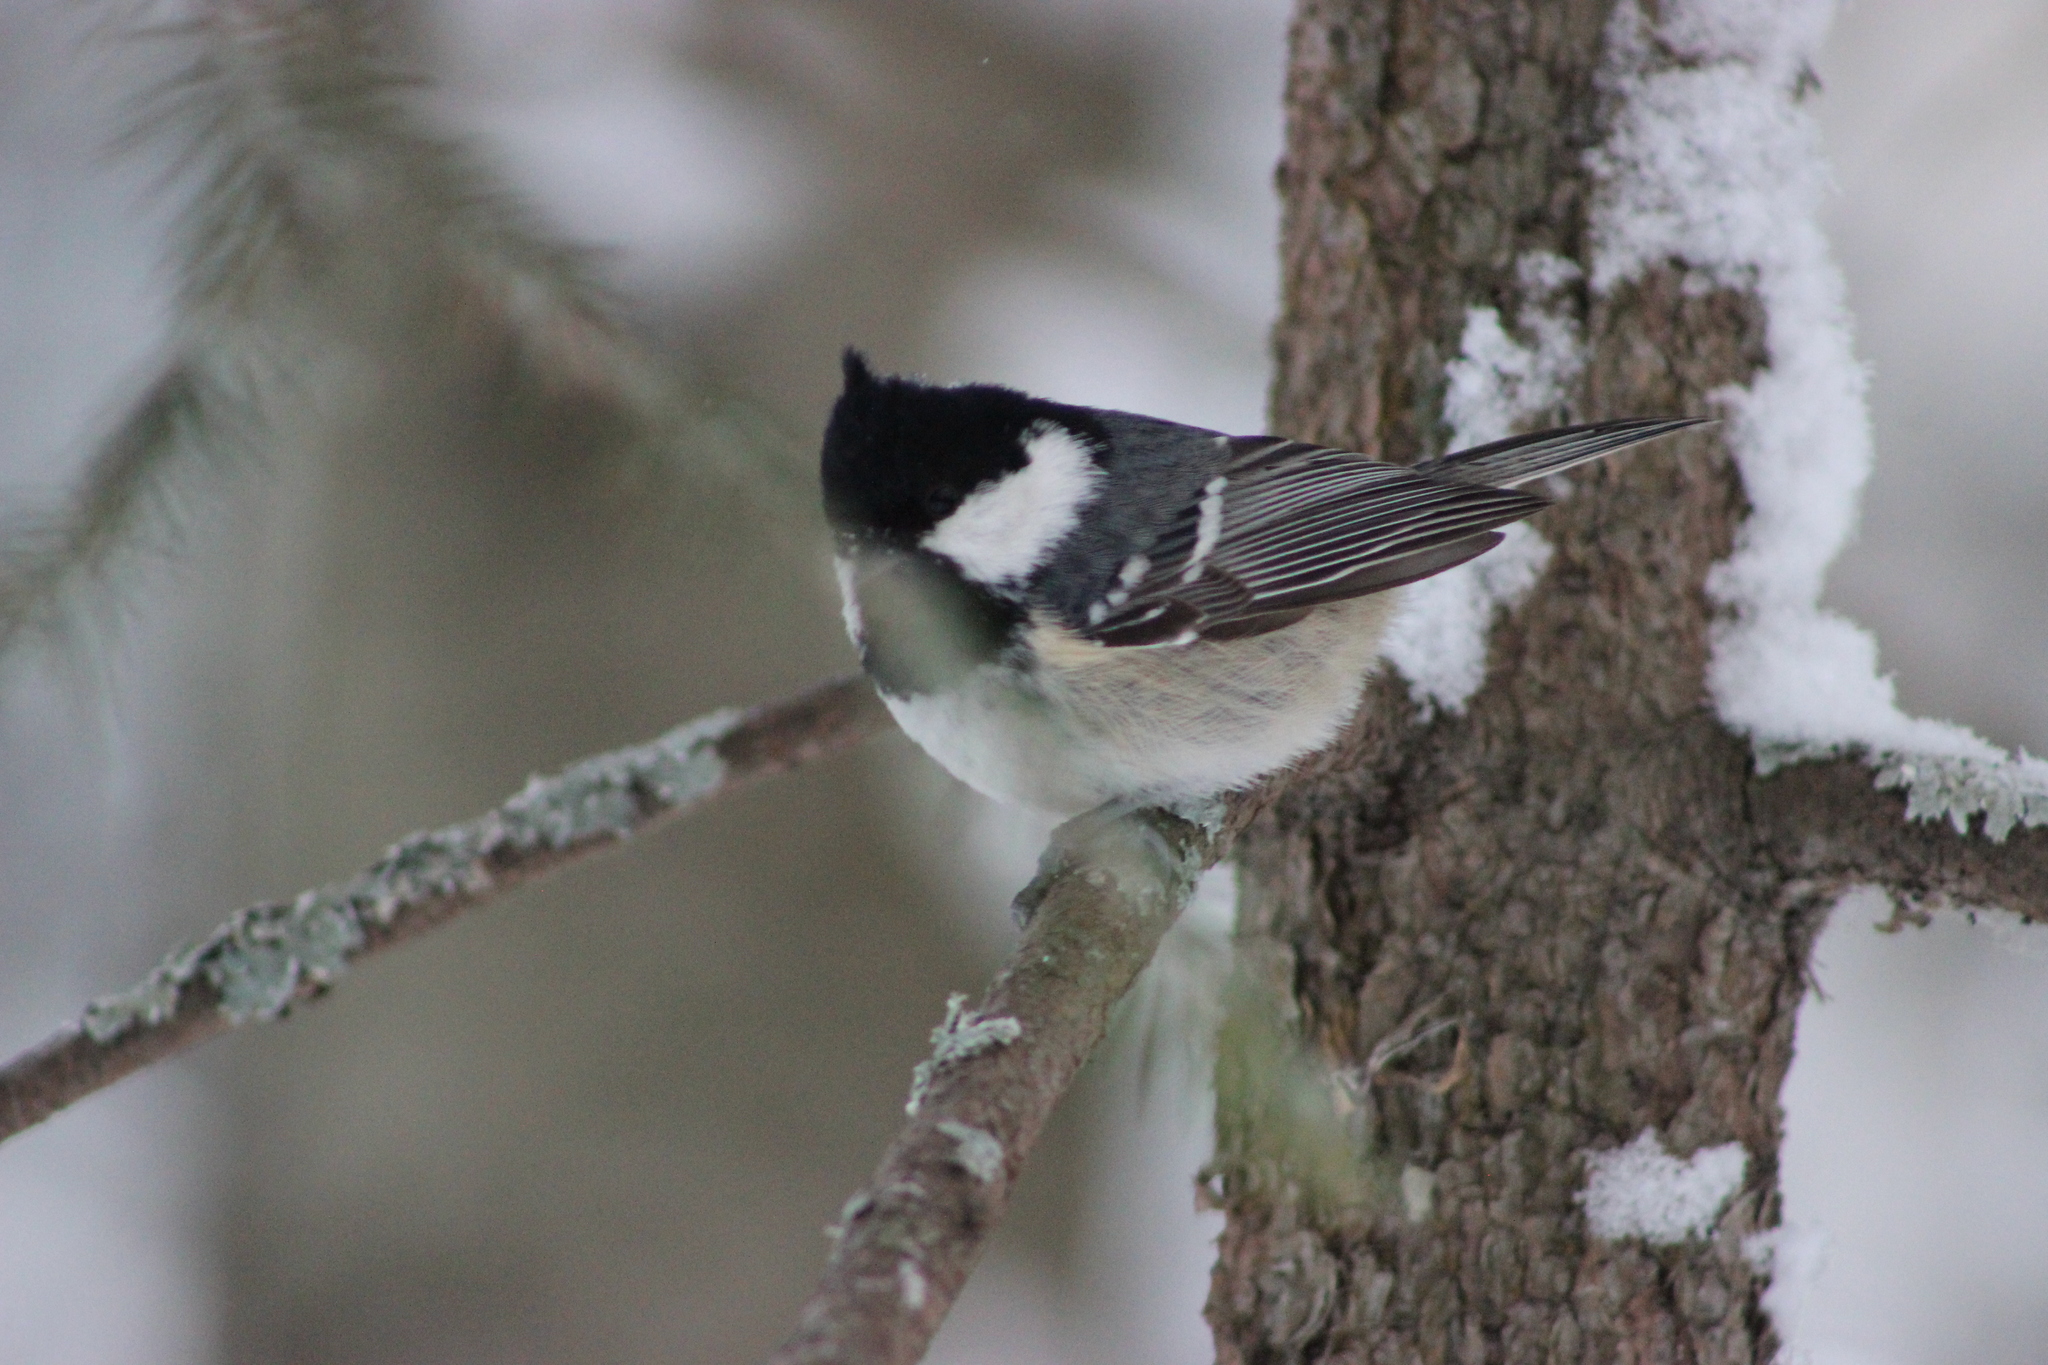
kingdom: Animalia
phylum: Chordata
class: Aves
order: Passeriformes
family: Paridae
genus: Periparus
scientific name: Periparus ater
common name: Coal tit
